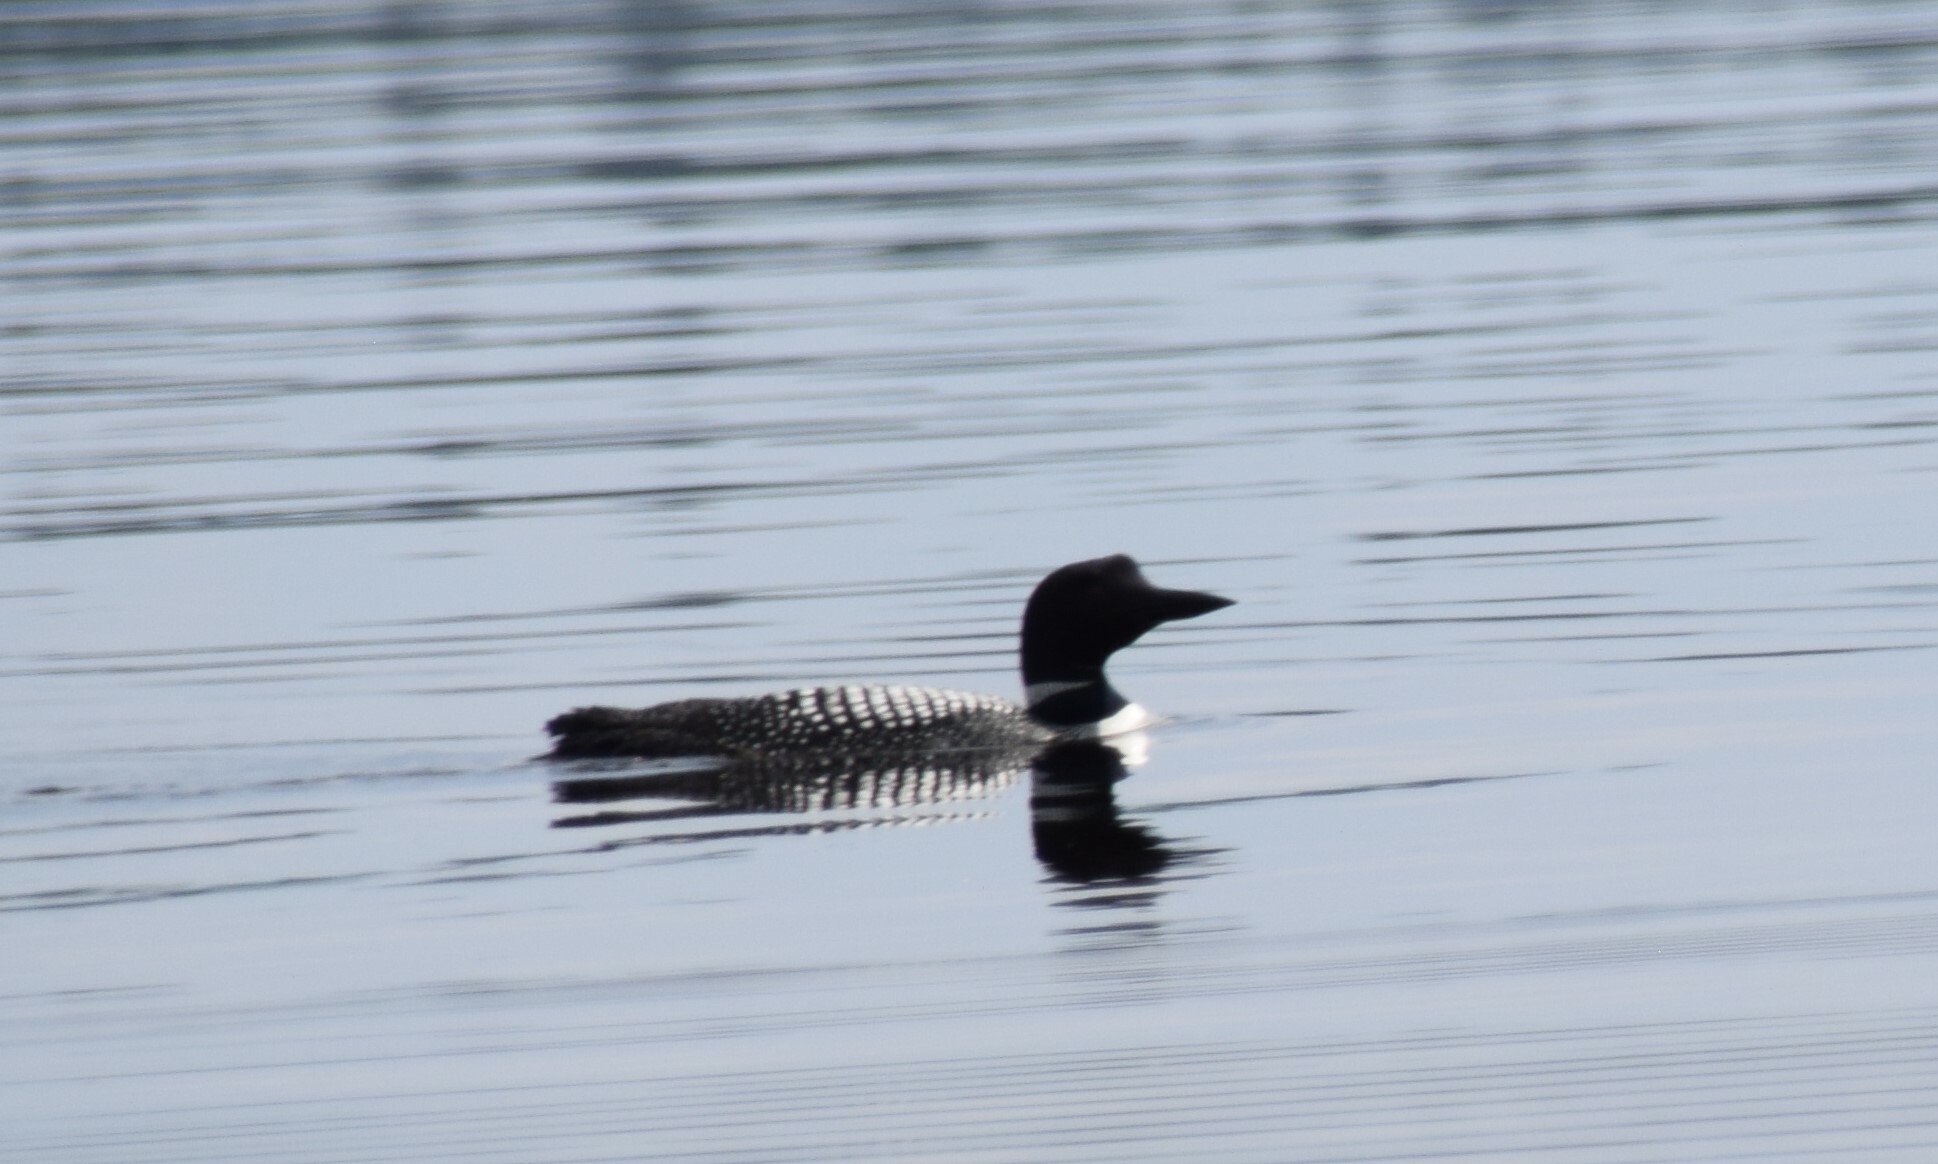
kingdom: Animalia
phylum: Chordata
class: Aves
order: Gaviiformes
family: Gaviidae
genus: Gavia
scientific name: Gavia immer
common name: Common loon
